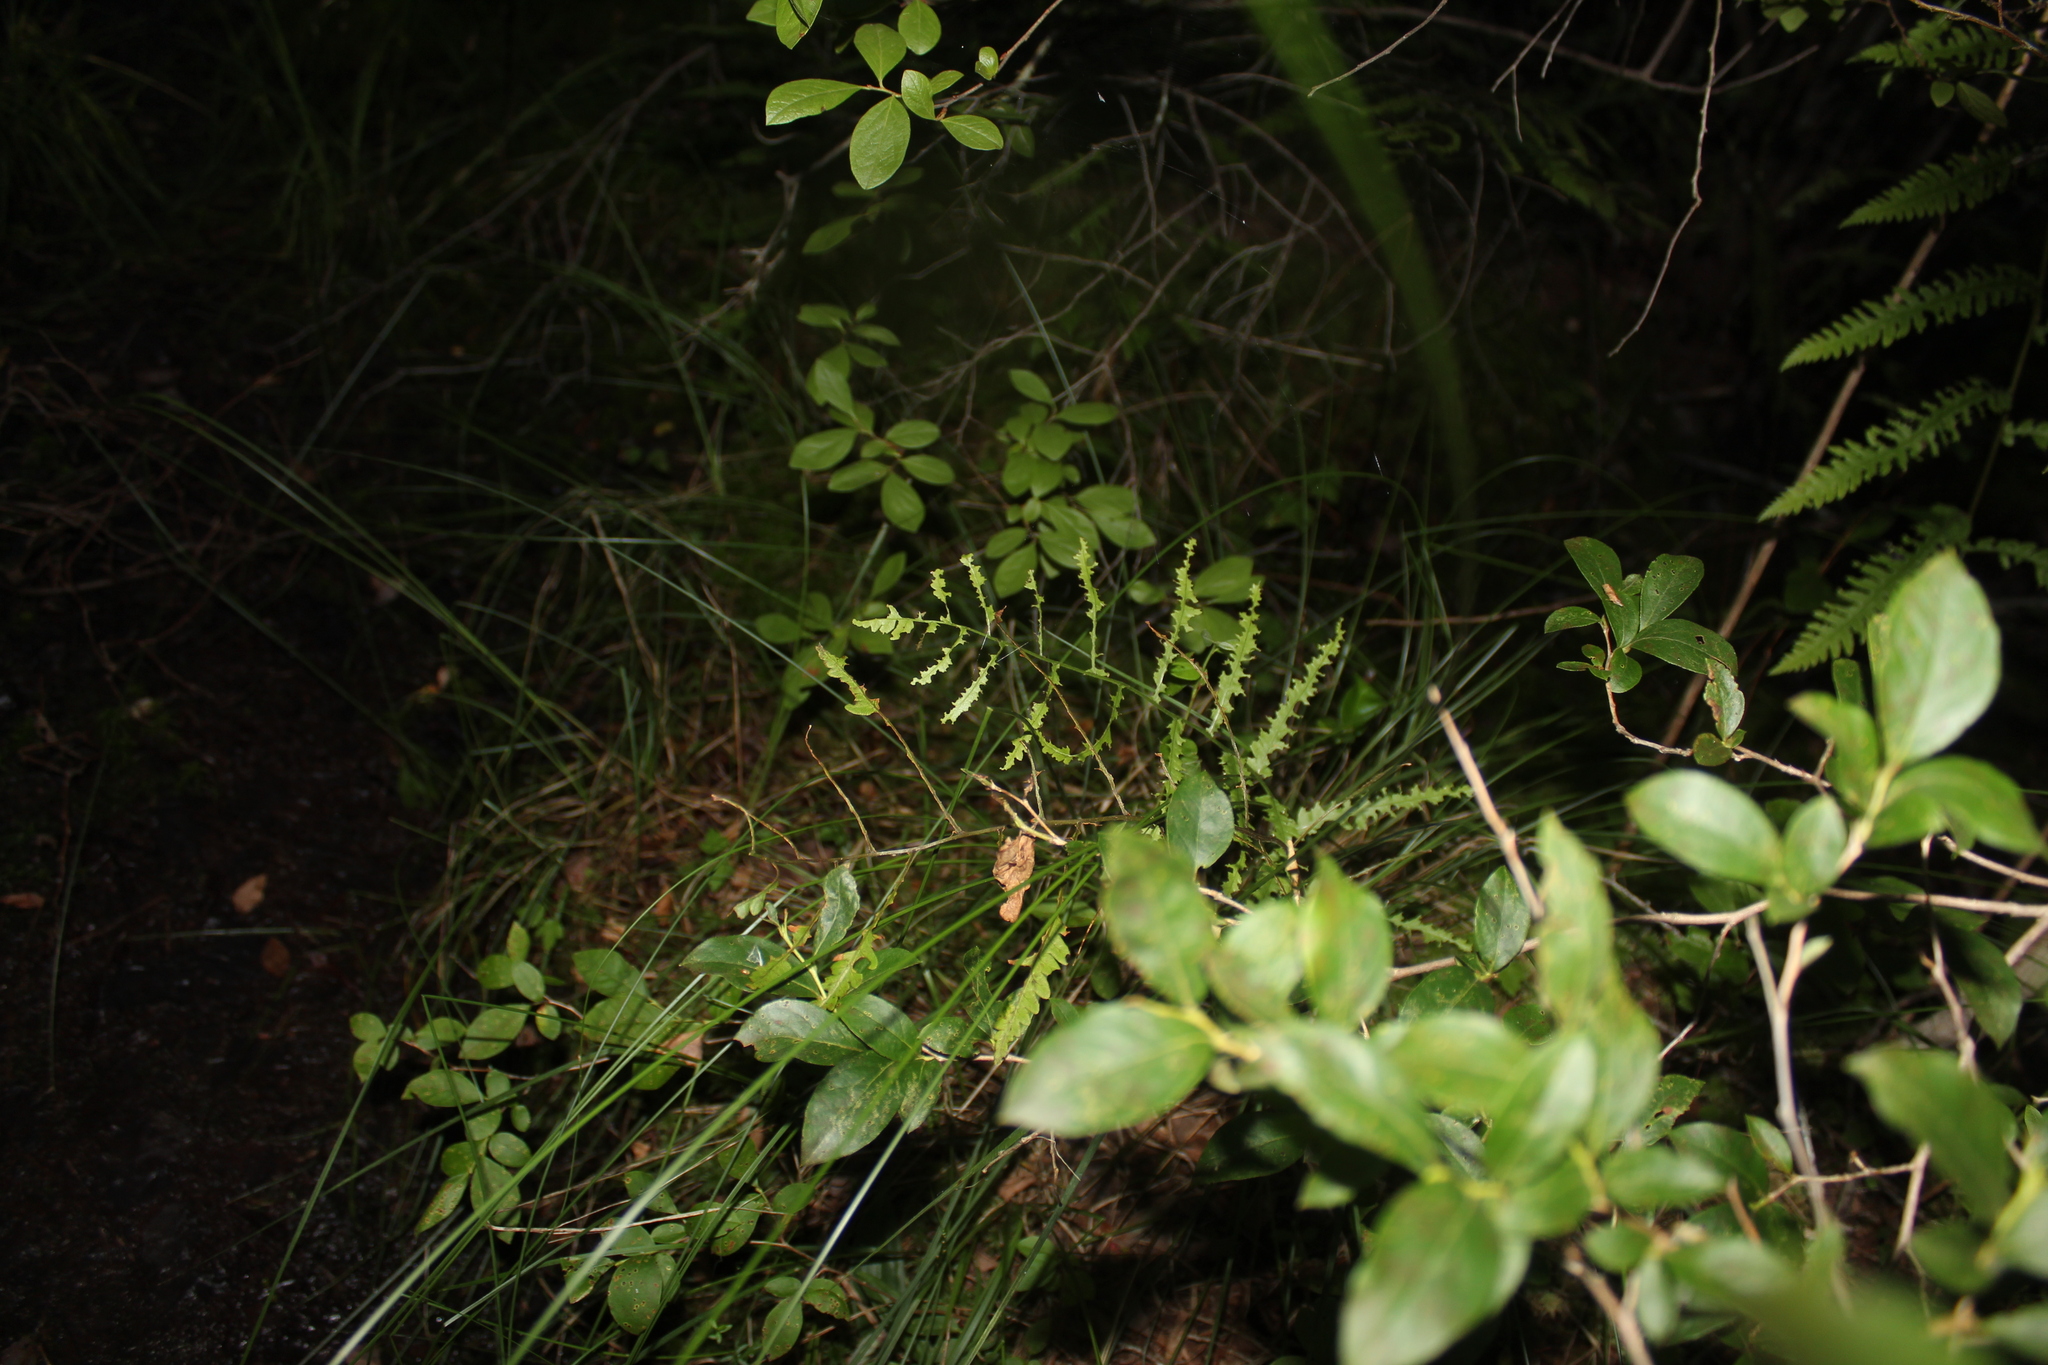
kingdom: Plantae
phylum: Tracheophyta
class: Polypodiopsida
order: Polypodiales
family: Blechnaceae
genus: Anchistea
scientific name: Anchistea virginica
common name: Virginia chain fern
